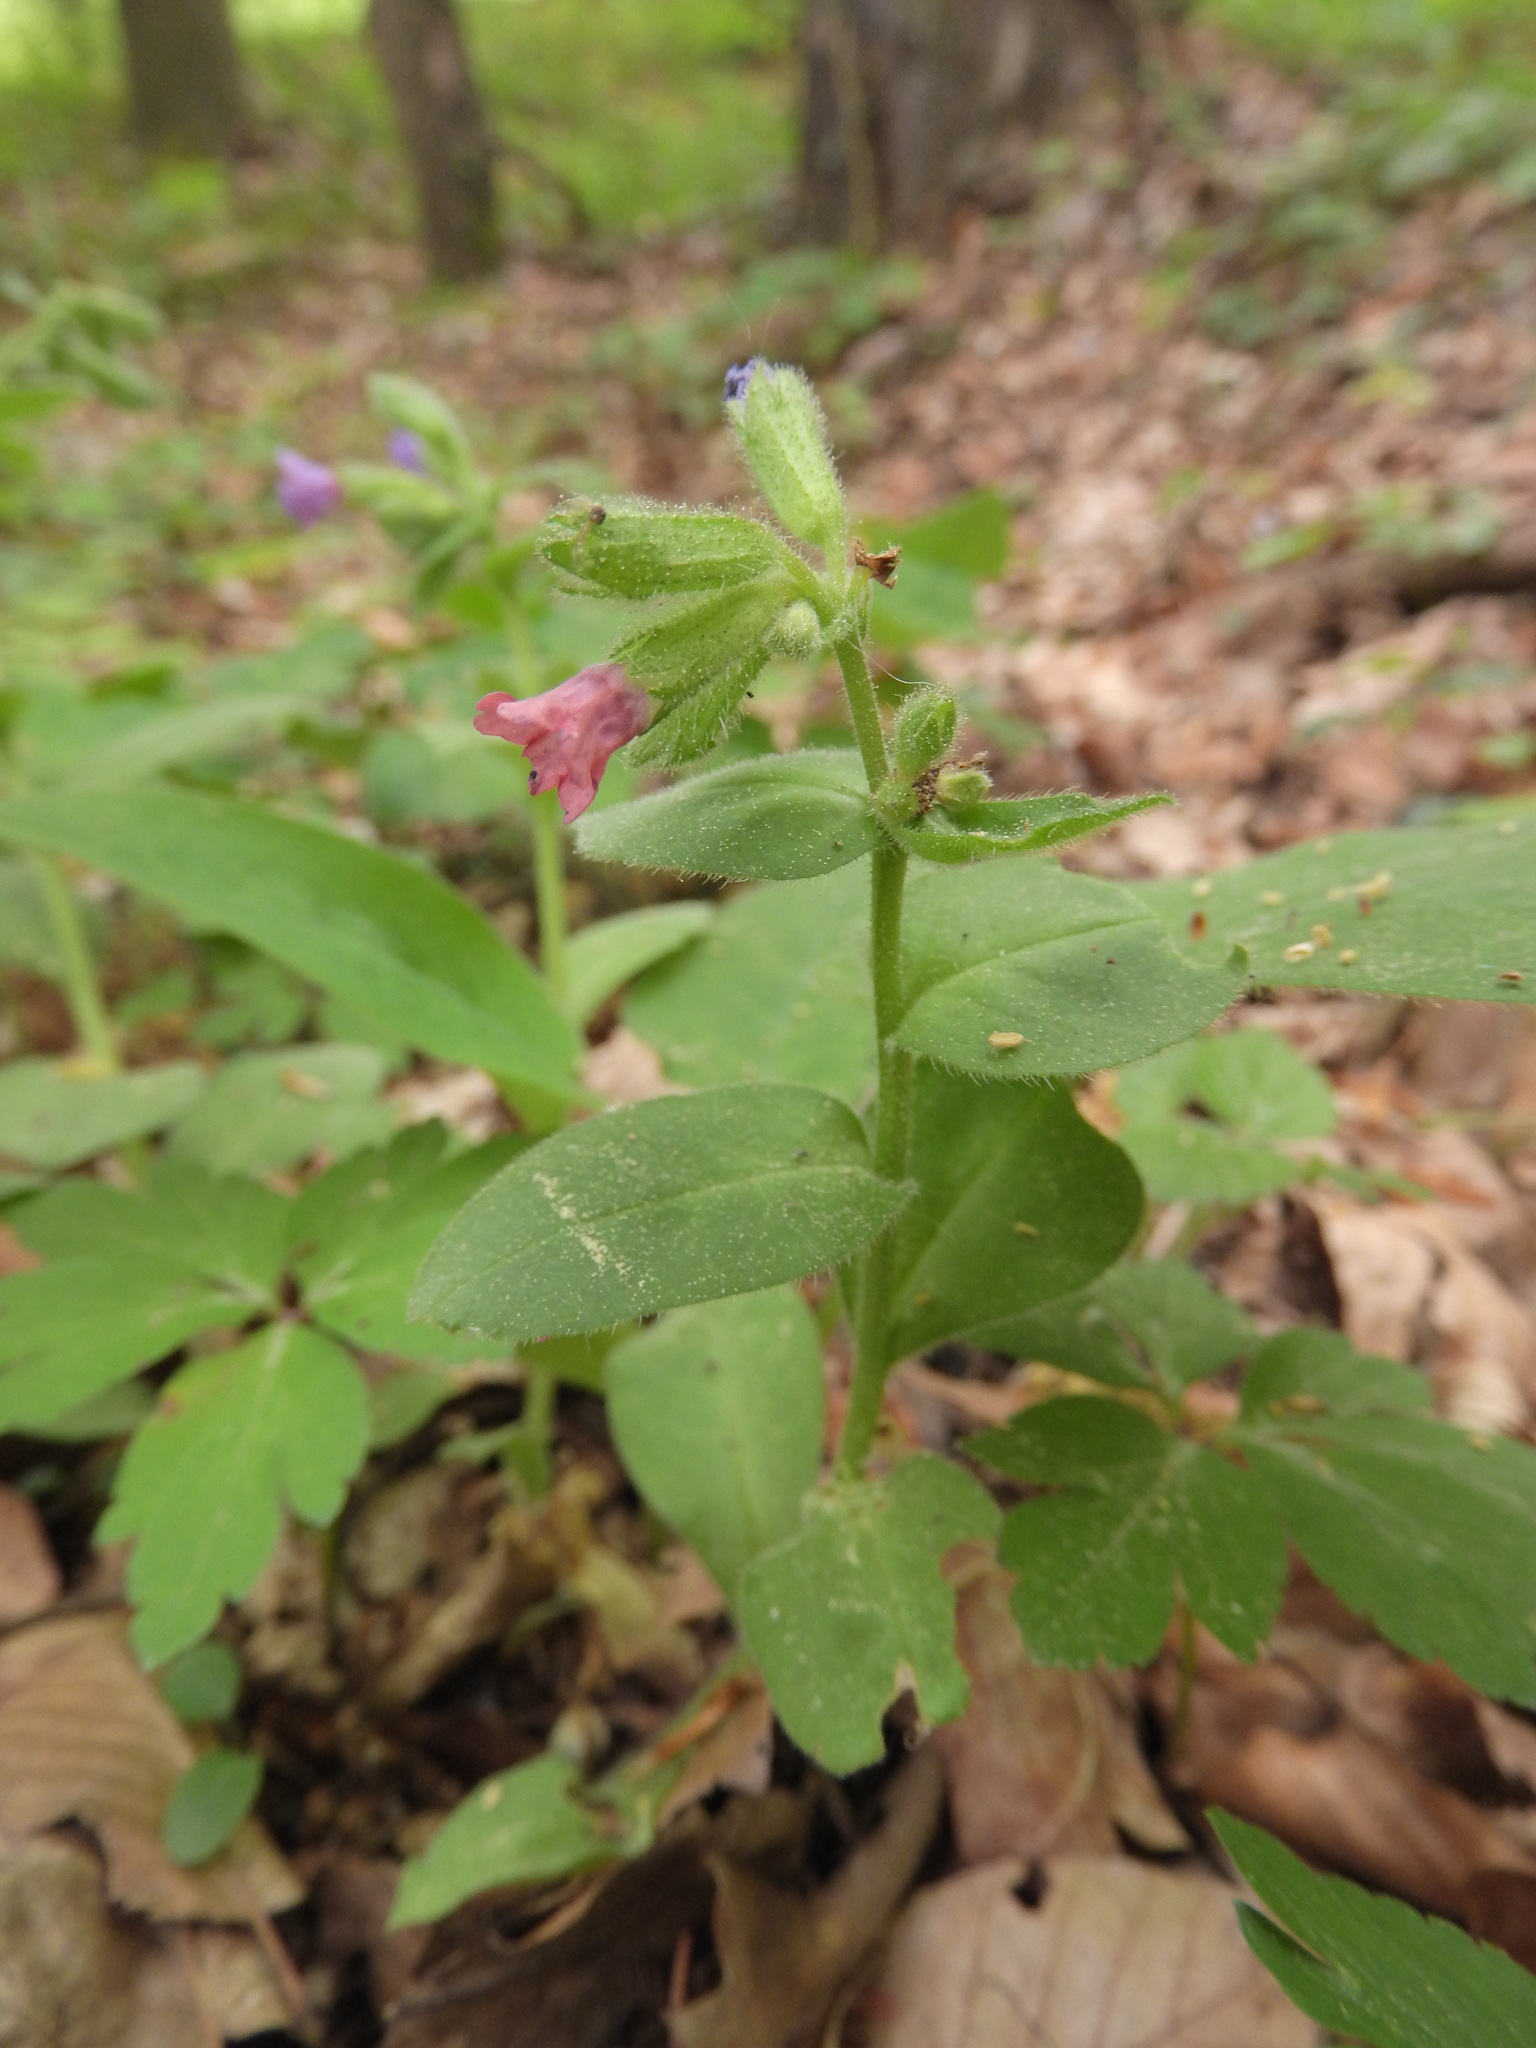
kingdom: Plantae
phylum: Tracheophyta
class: Magnoliopsida
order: Boraginales
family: Boraginaceae
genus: Pulmonaria
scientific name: Pulmonaria obscura
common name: Suffolk lungwort
